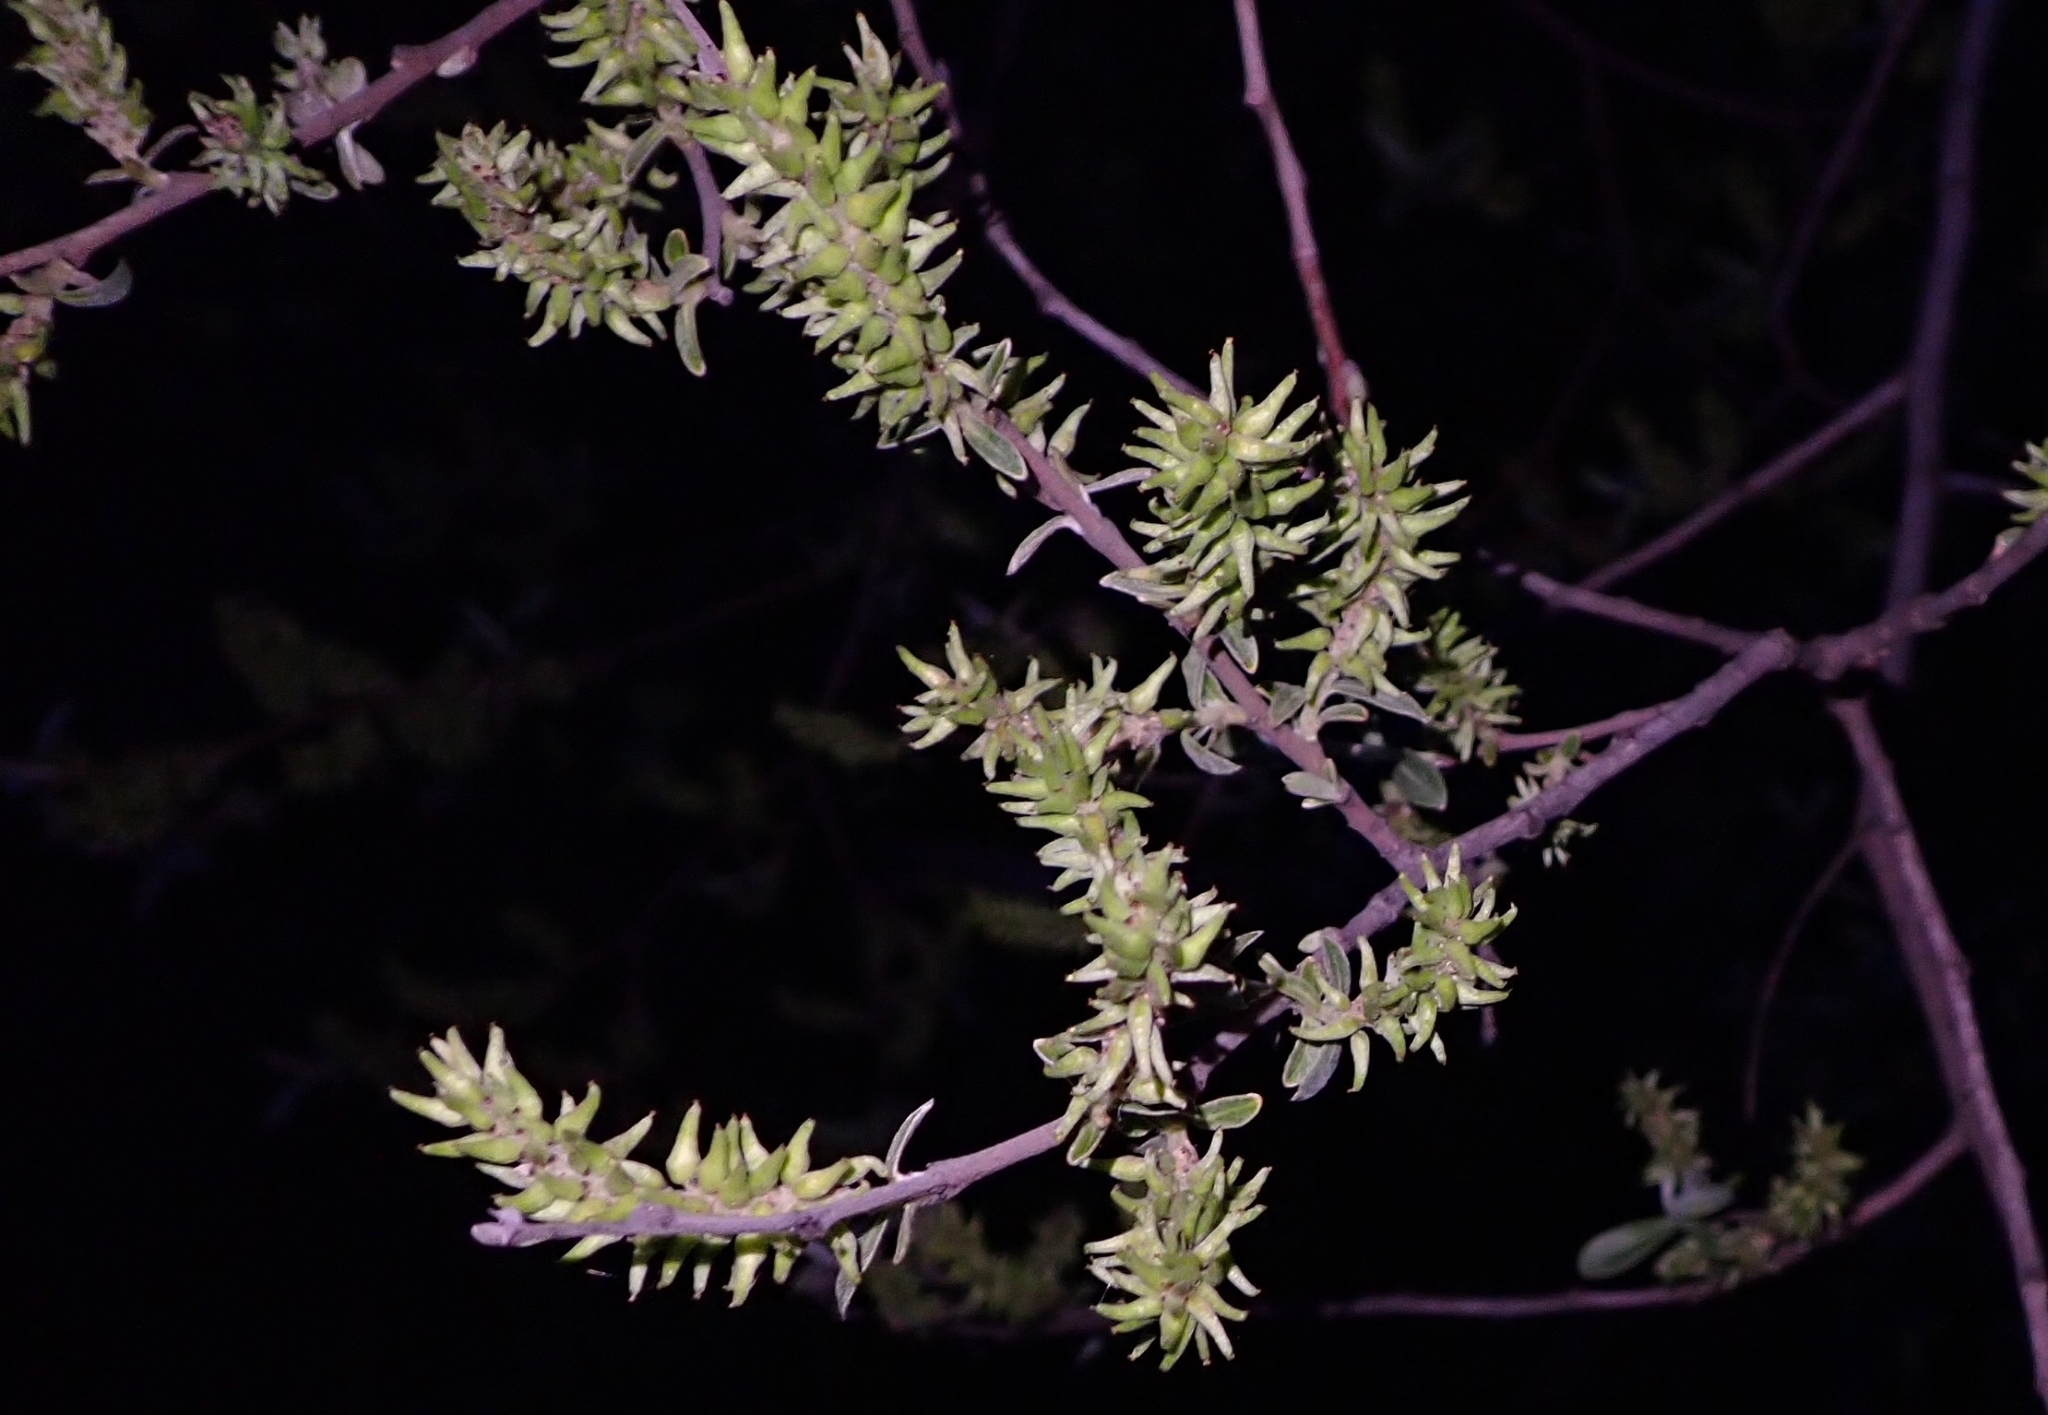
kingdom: Plantae
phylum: Tracheophyta
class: Magnoliopsida
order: Malpighiales
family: Salicaceae
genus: Salix
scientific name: Salix salviifolia
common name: Salvia-leaf willow
